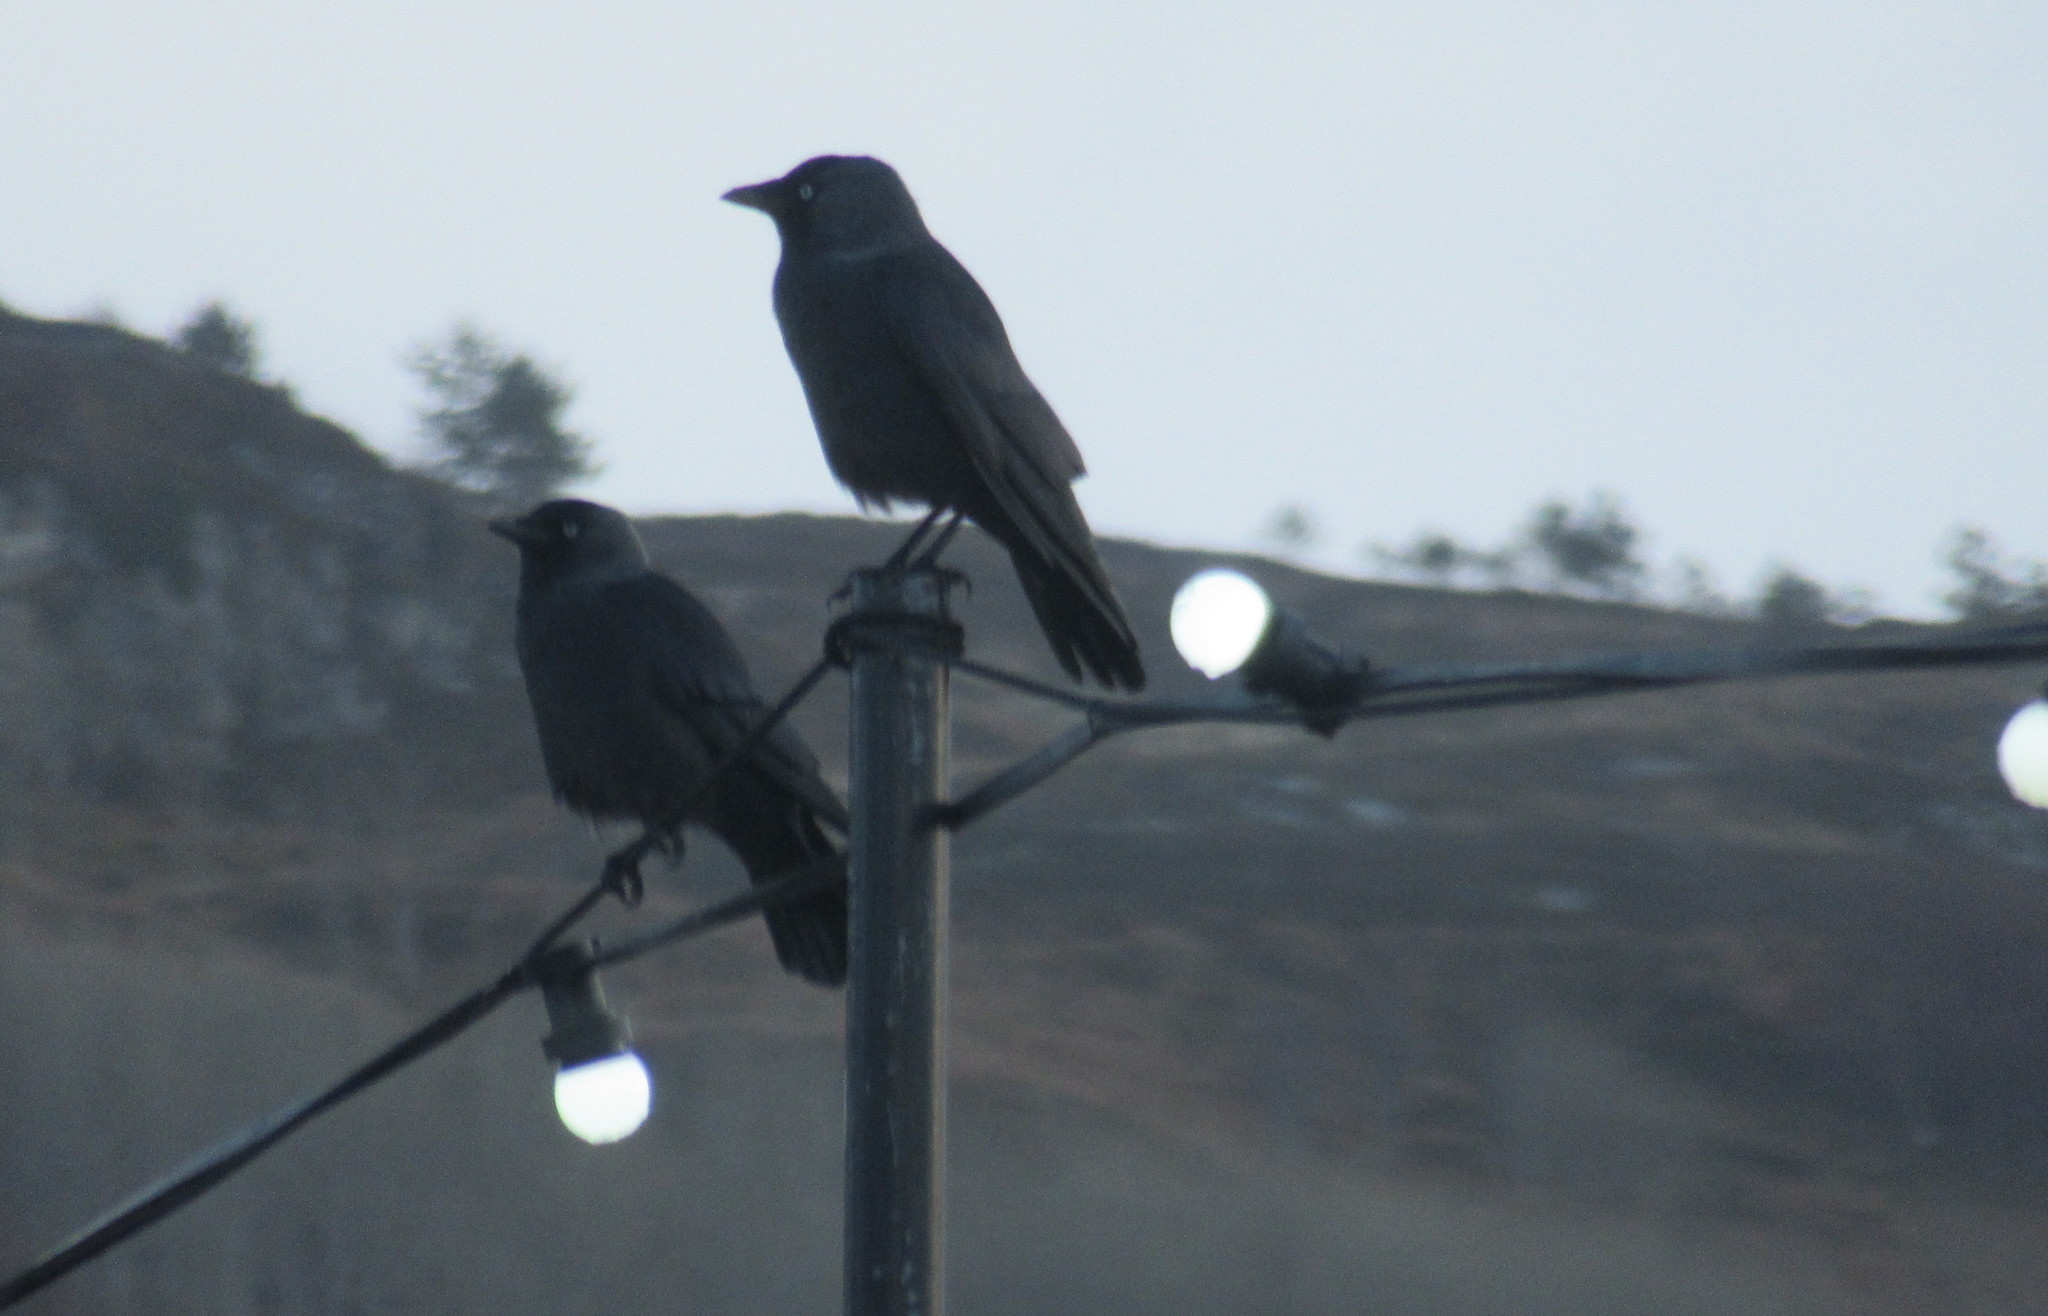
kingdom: Animalia
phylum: Chordata
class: Aves
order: Passeriformes
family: Corvidae
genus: Coloeus
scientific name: Coloeus monedula
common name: Western jackdaw
